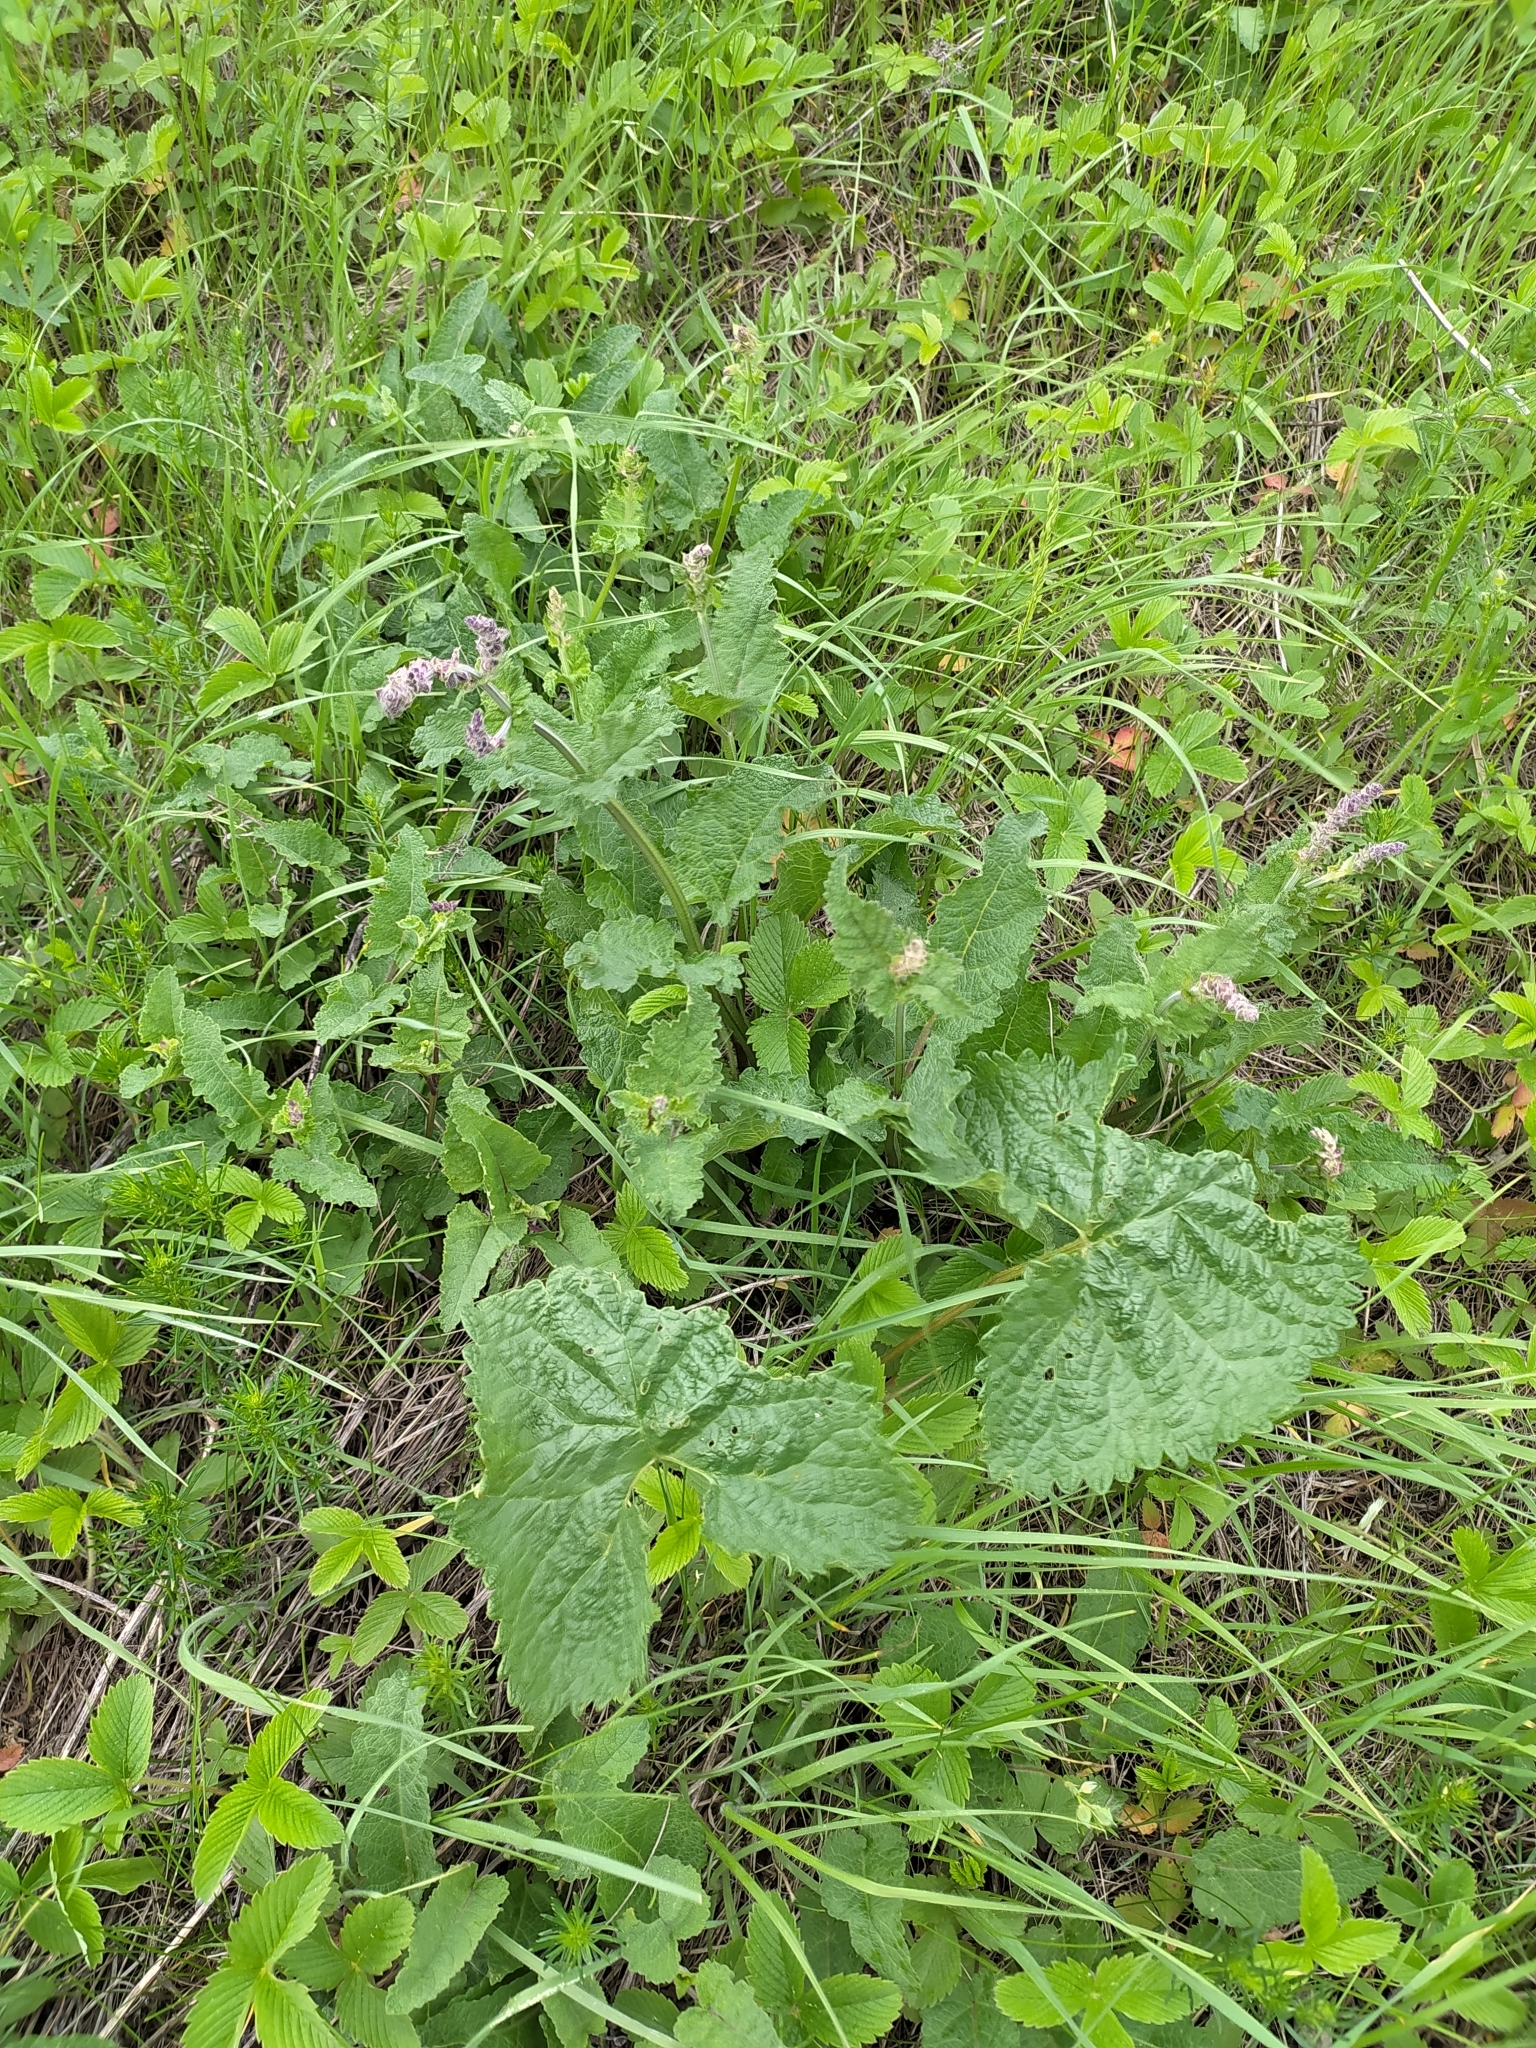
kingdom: Plantae
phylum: Tracheophyta
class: Magnoliopsida
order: Lamiales
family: Lamiaceae
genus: Salvia
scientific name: Salvia verticillata
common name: Whorled clary
